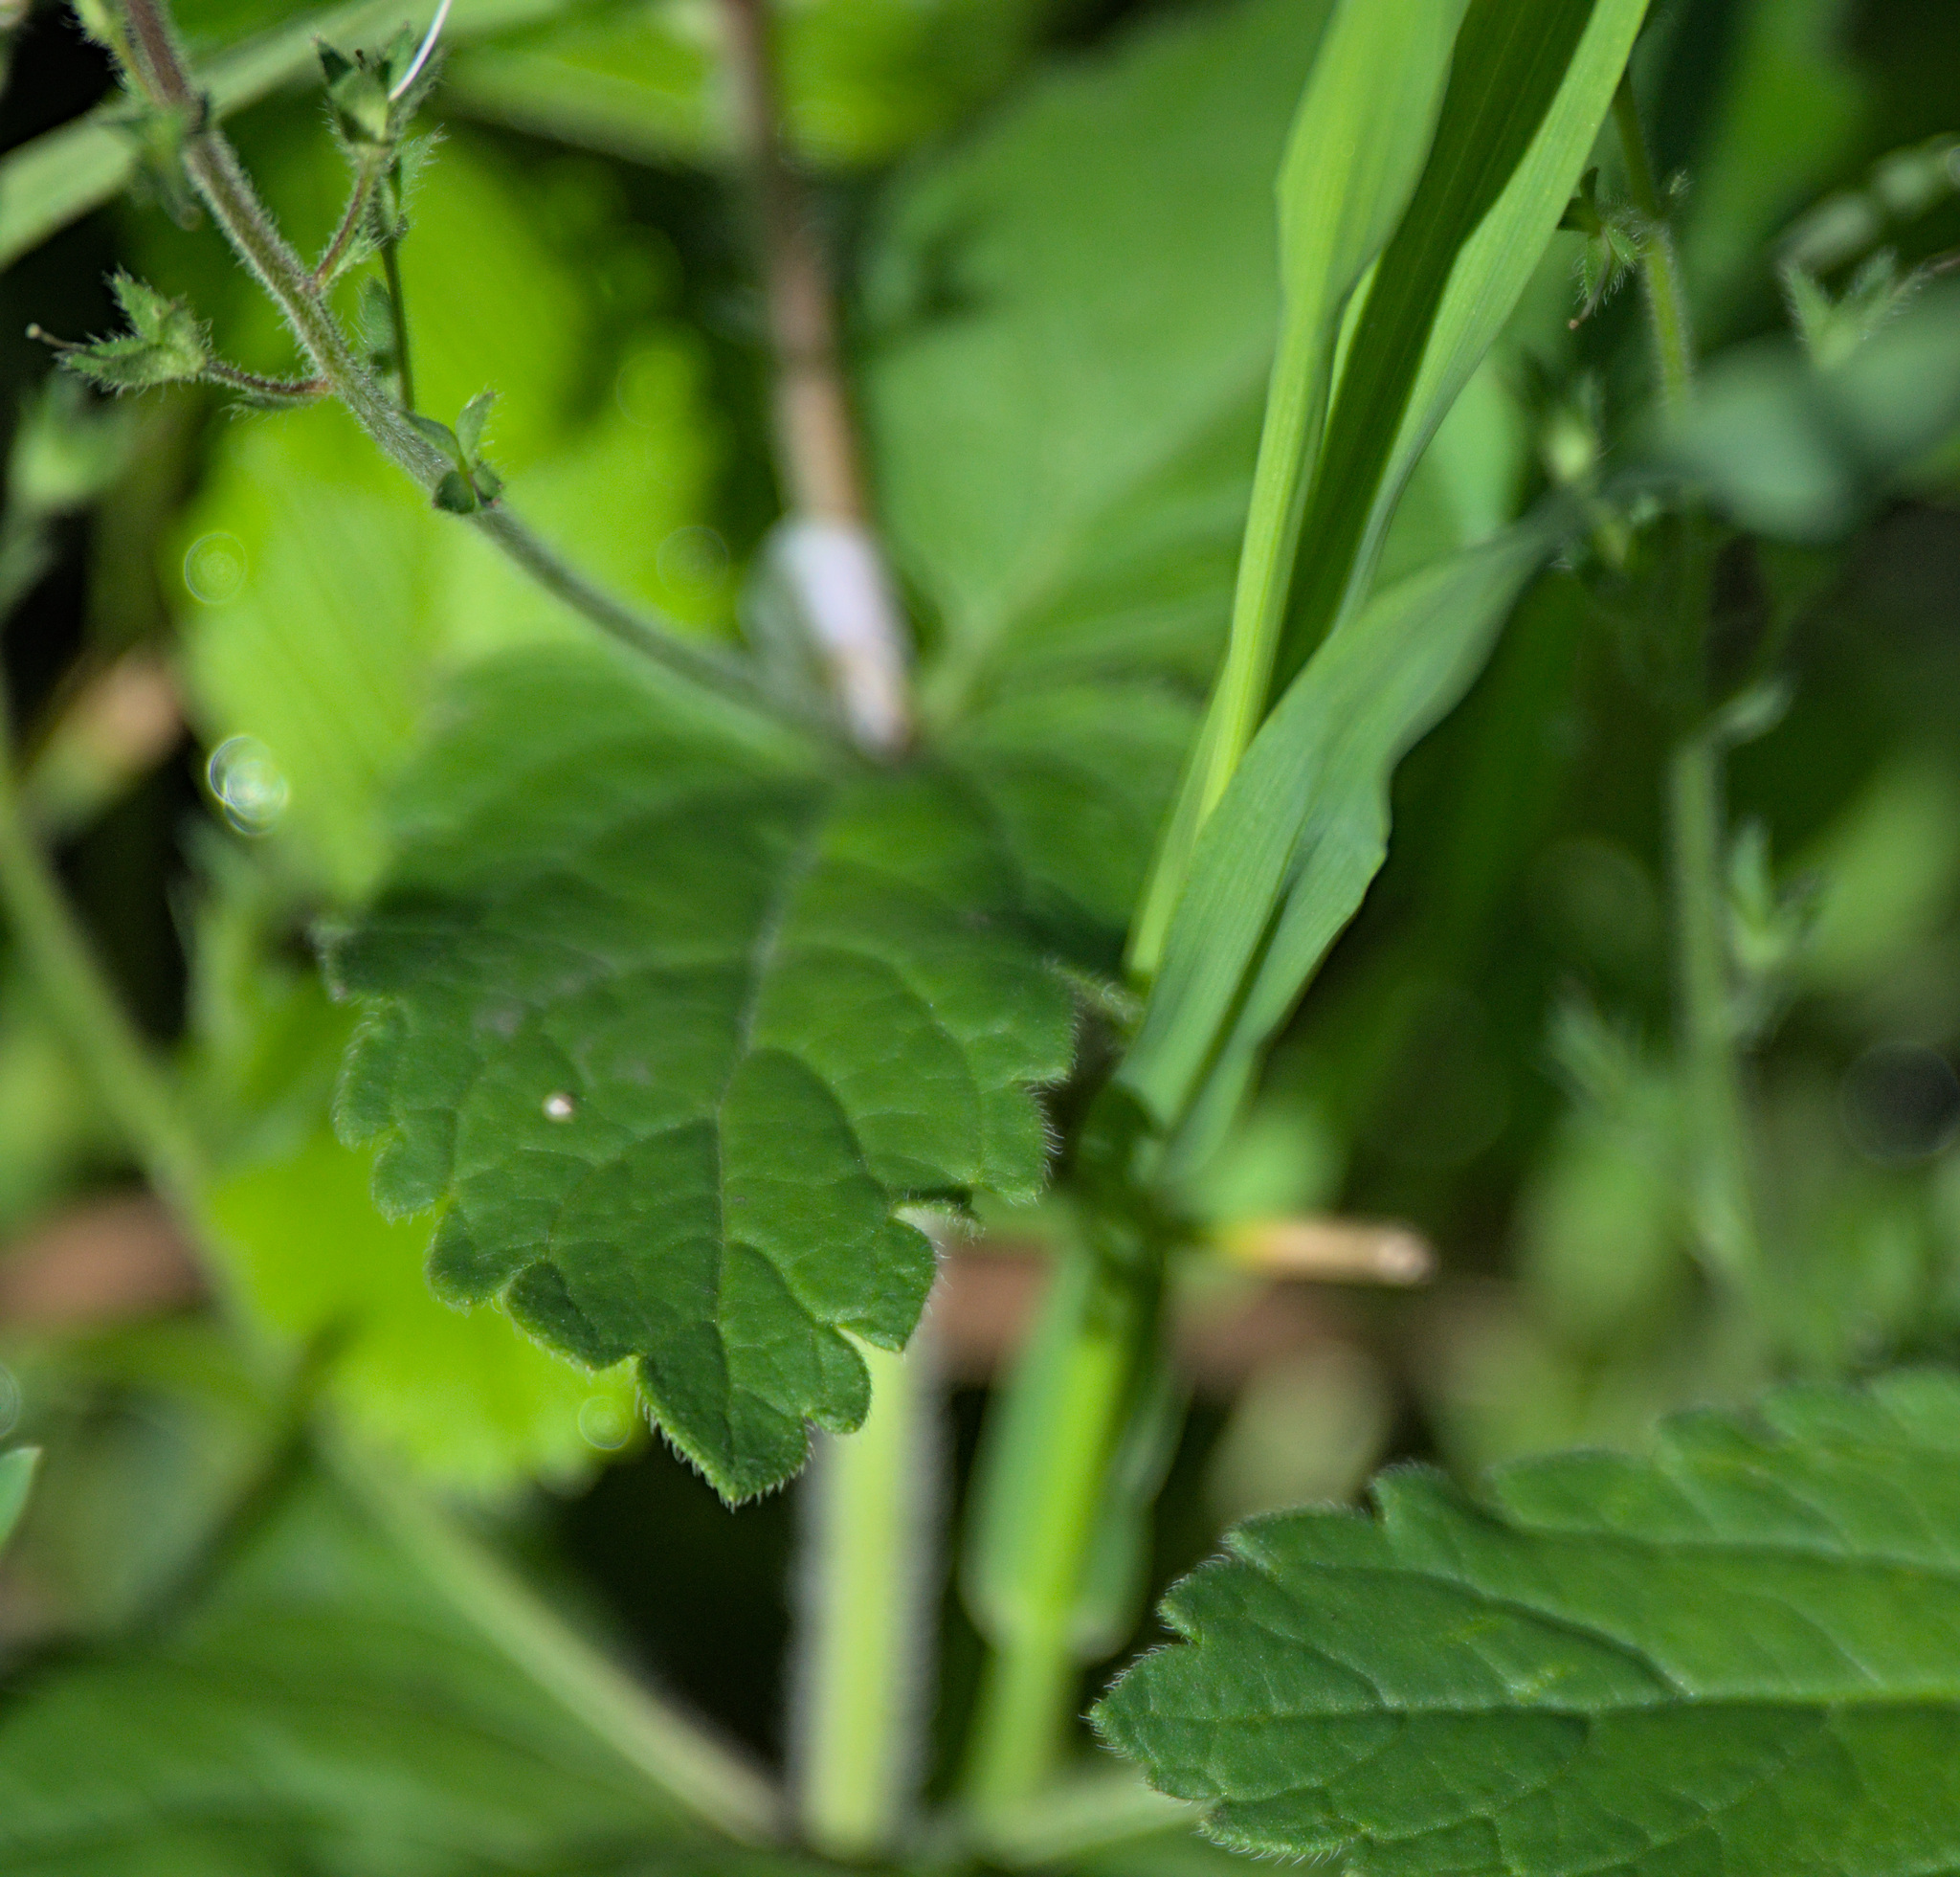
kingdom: Plantae
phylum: Tracheophyta
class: Magnoliopsida
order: Lamiales
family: Plantaginaceae
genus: Veronica
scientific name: Veronica chamaedrys
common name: Germander speedwell
